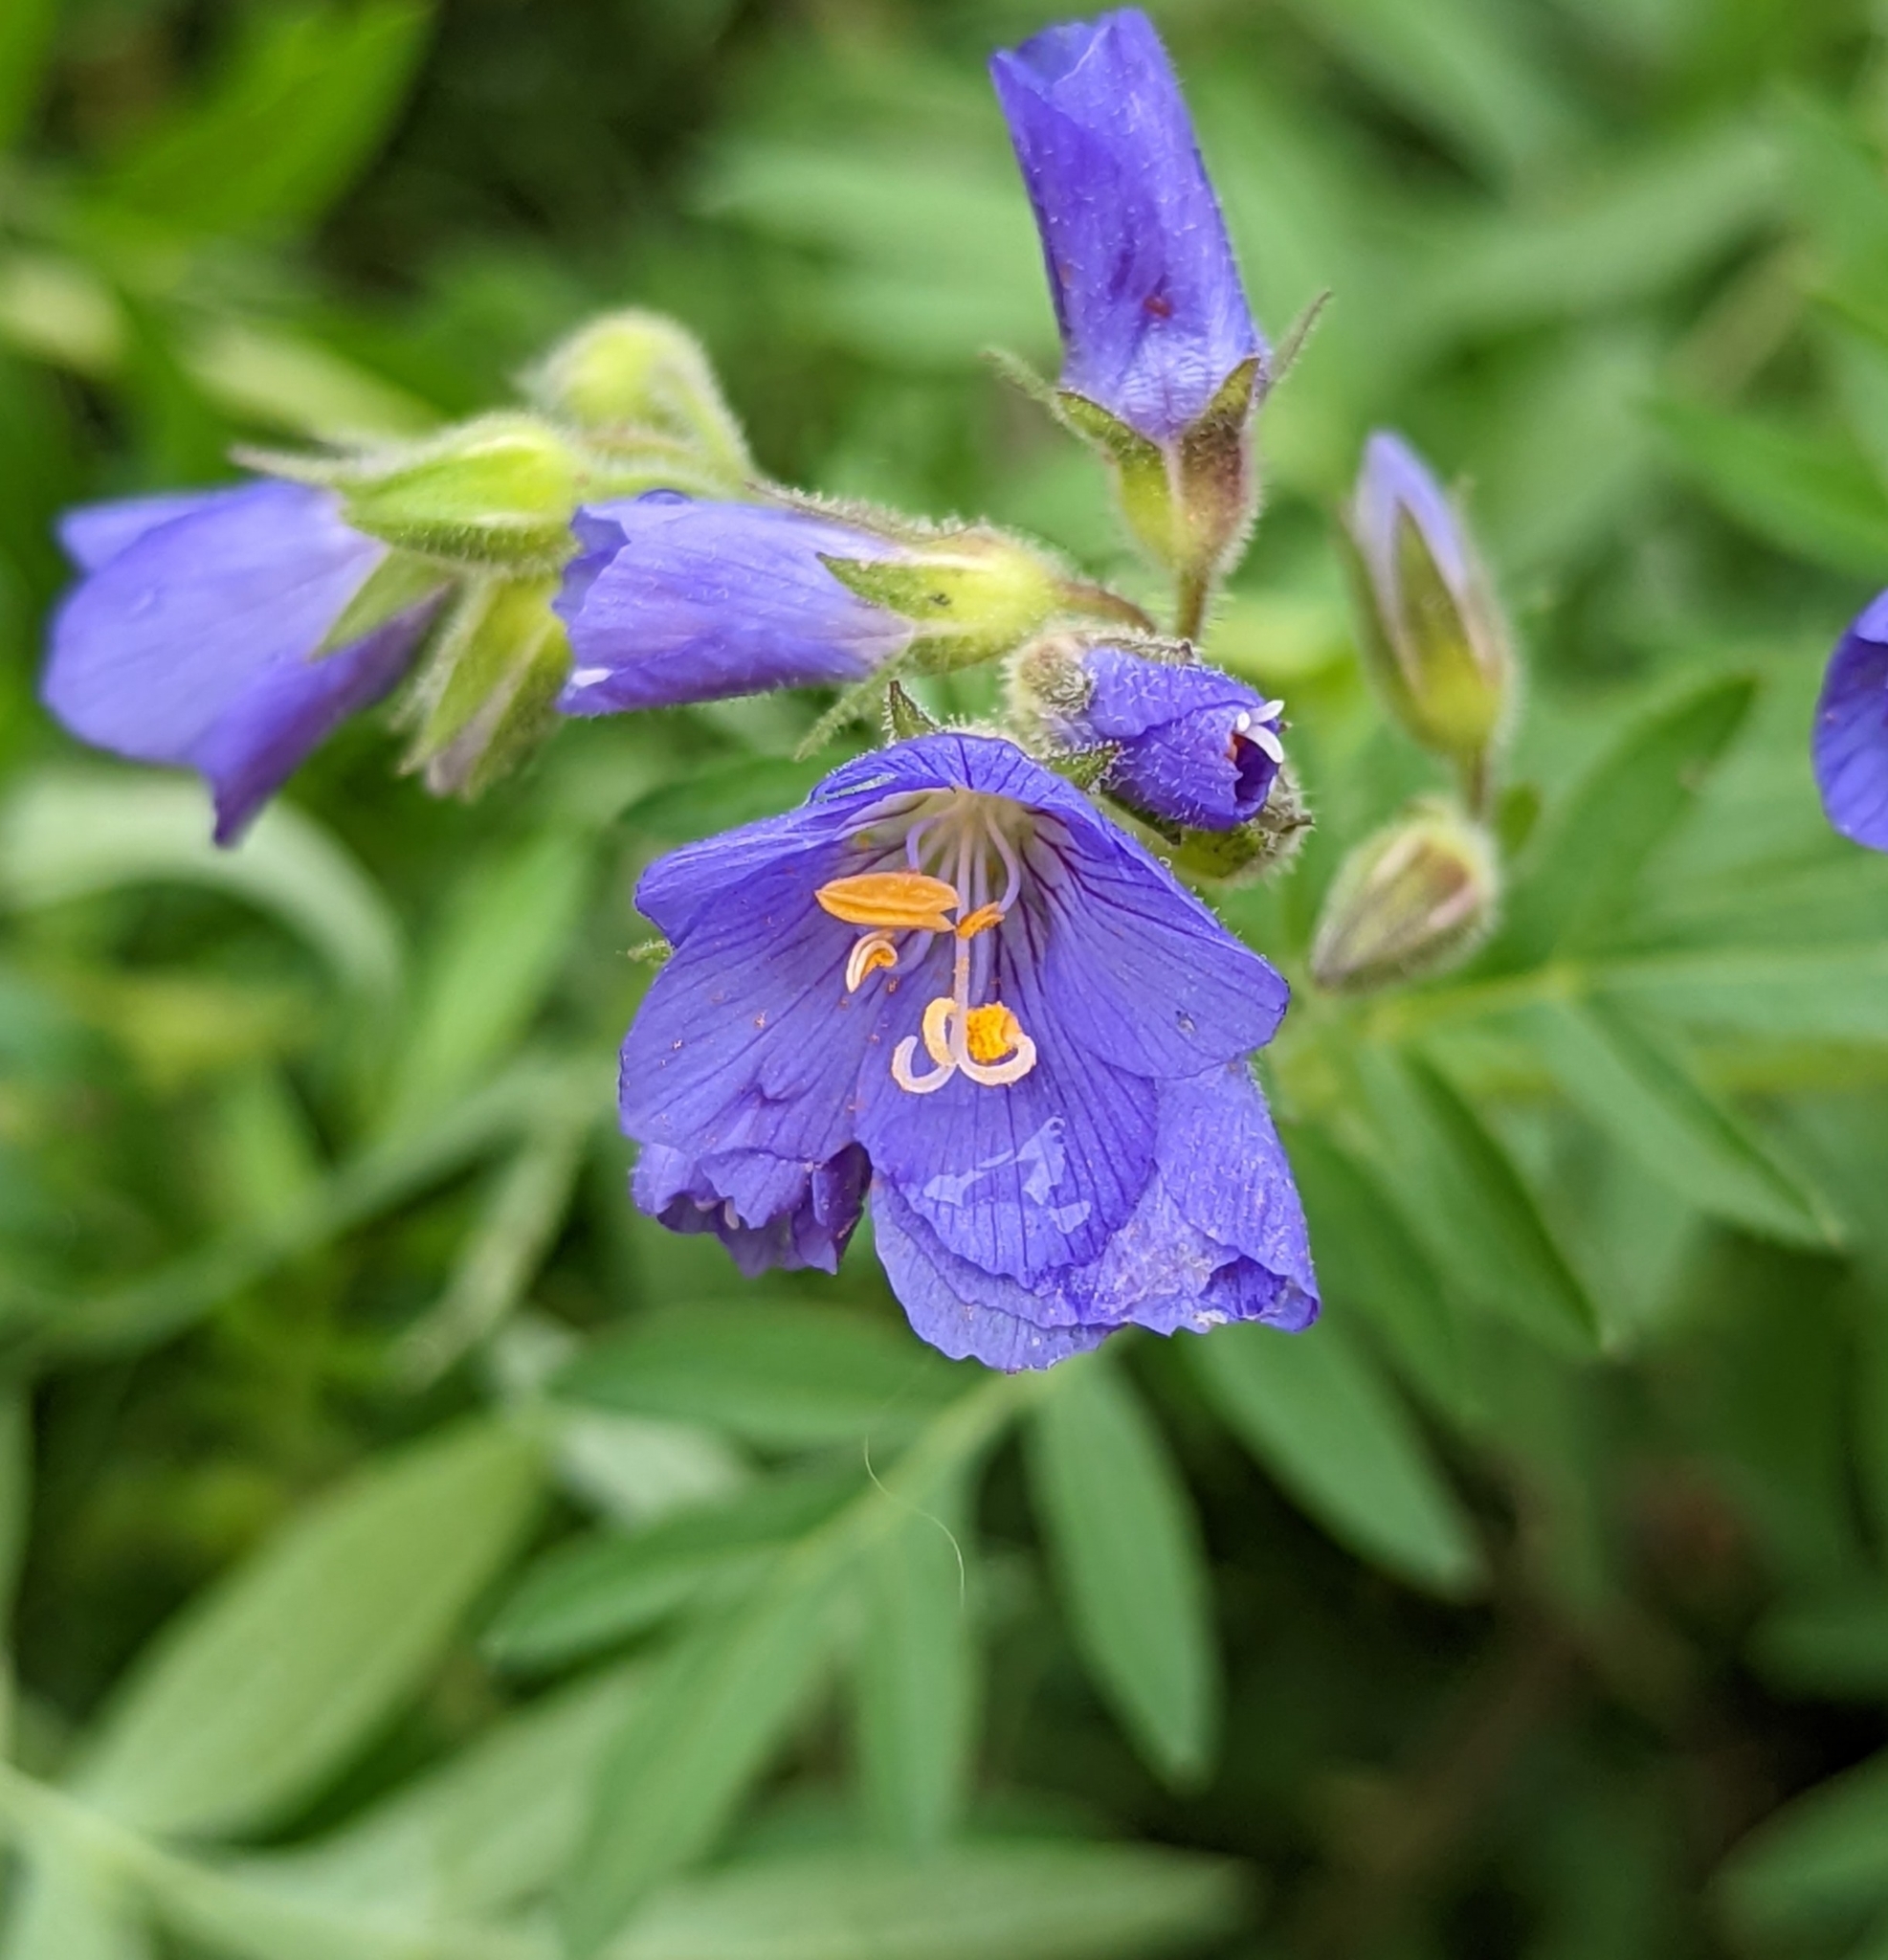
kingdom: Plantae
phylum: Tracheophyta
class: Magnoliopsida
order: Ericales
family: Polemoniaceae
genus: Polemonium
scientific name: Polemonium foliosissimum
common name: Leafy jacob's-ladder
